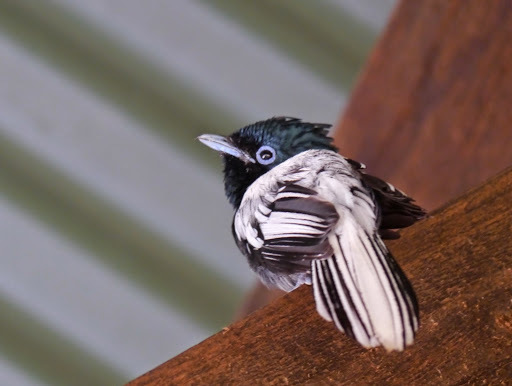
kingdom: Animalia
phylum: Chordata
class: Aves
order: Passeriformes
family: Monarchidae
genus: Terpsiphone
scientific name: Terpsiphone viridis
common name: African paradise flycatcher
